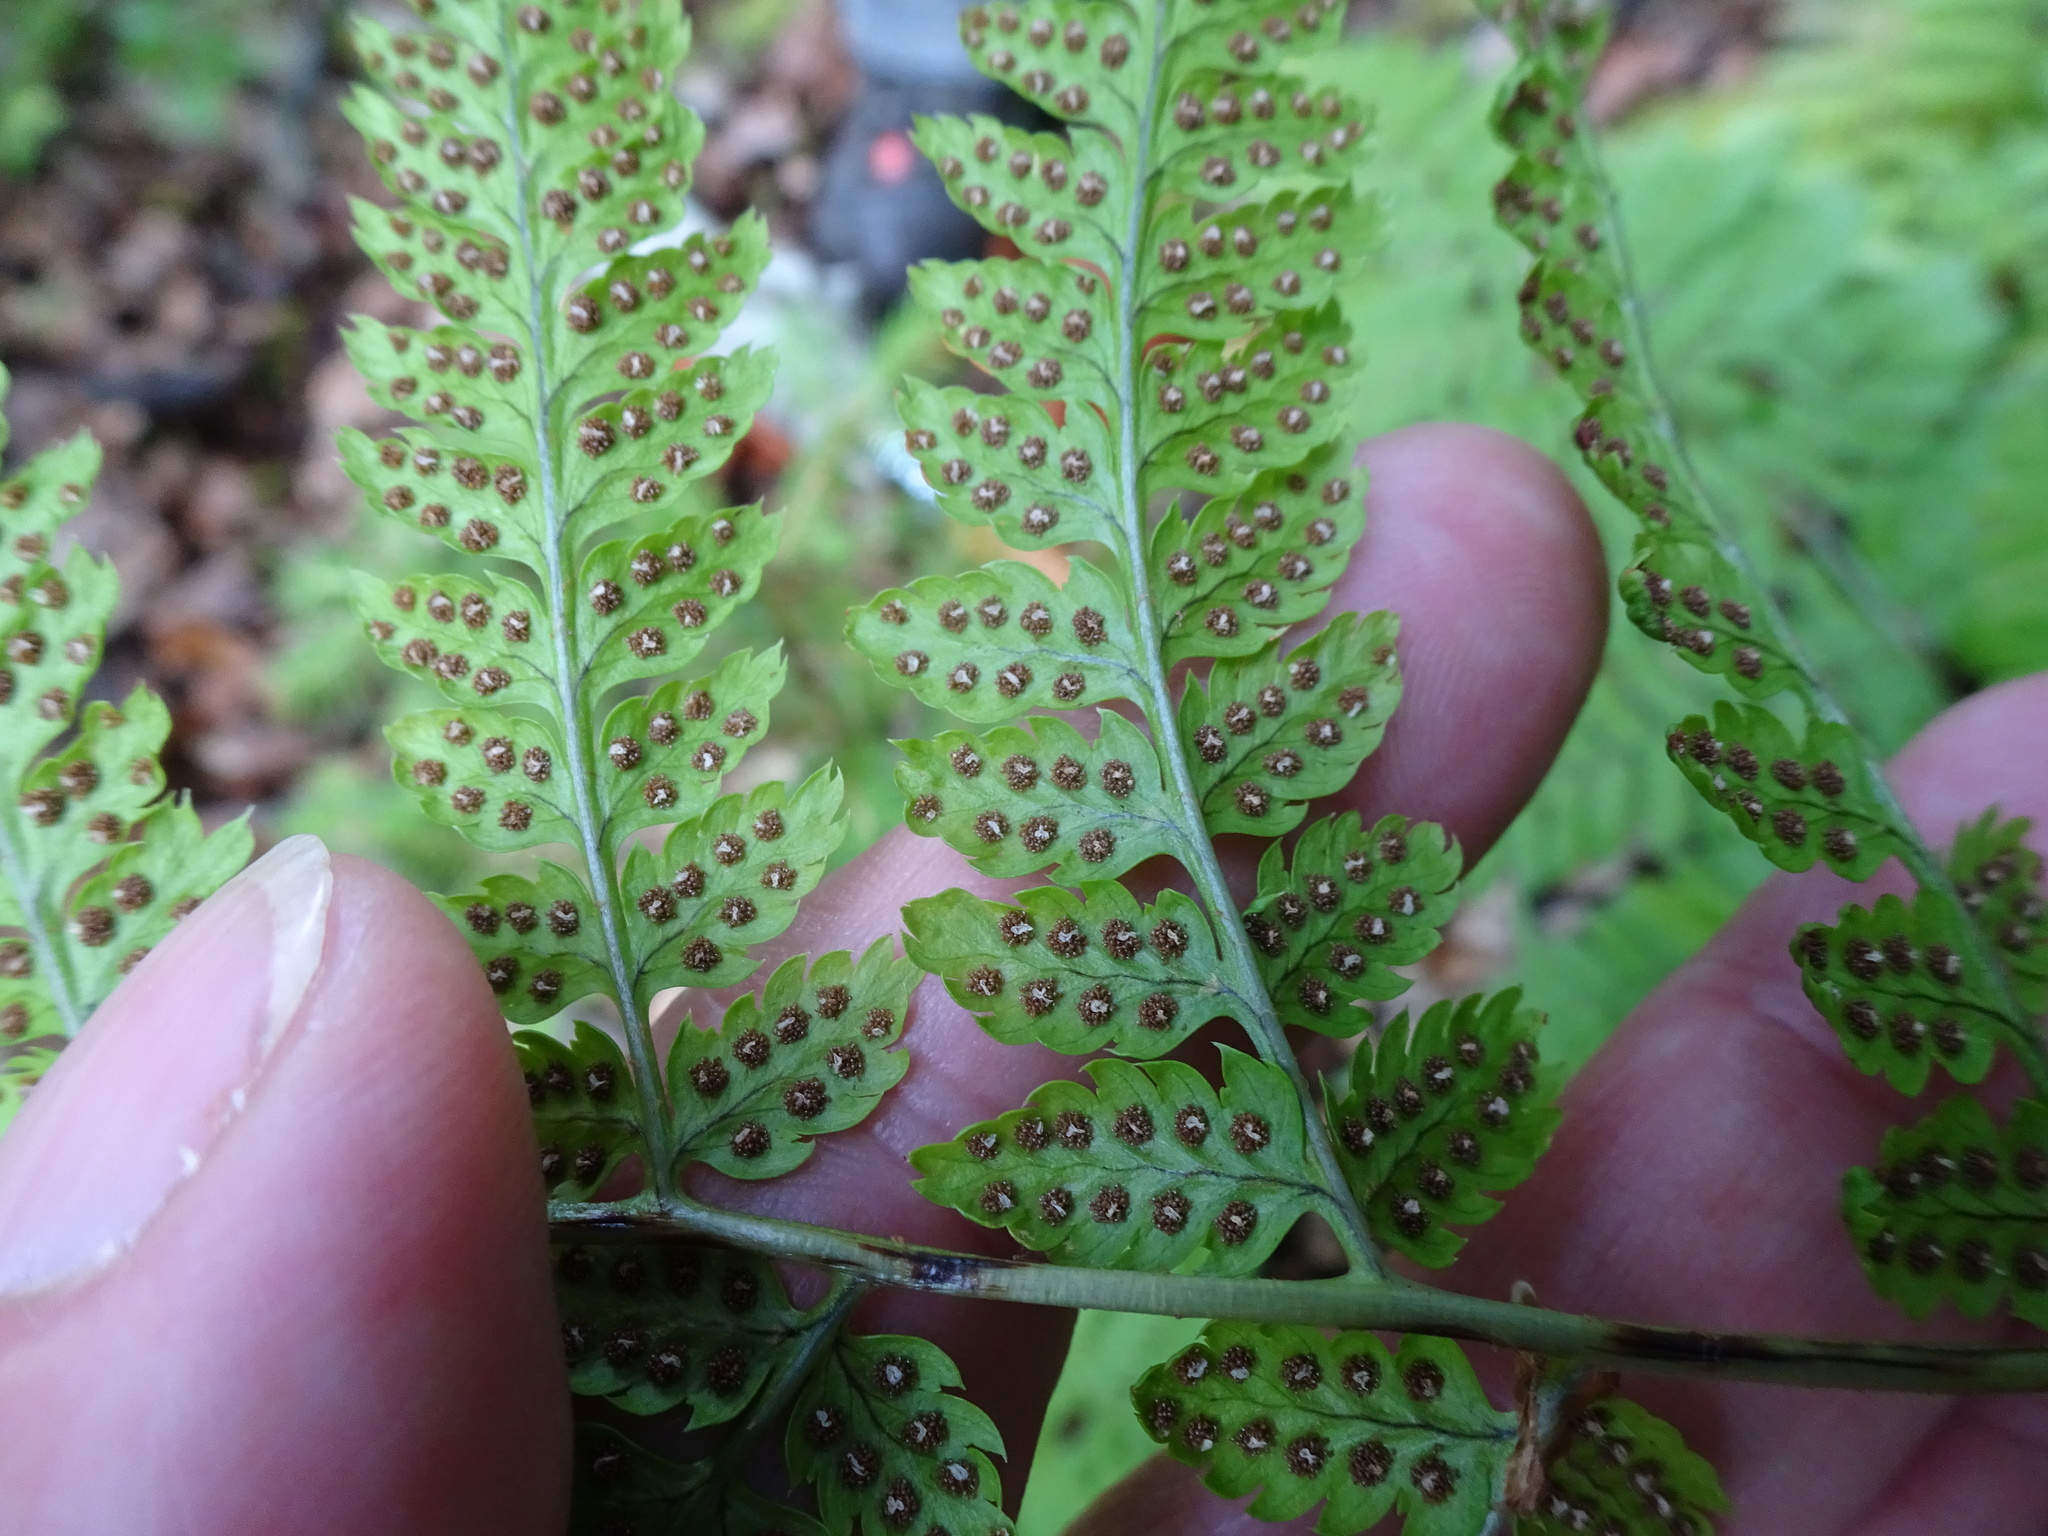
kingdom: Plantae
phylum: Tracheophyta
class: Polypodiopsida
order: Polypodiales
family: Dryopteridaceae
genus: Dryopteris
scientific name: Dryopteris carthusiana
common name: Narrow buckler-fern
